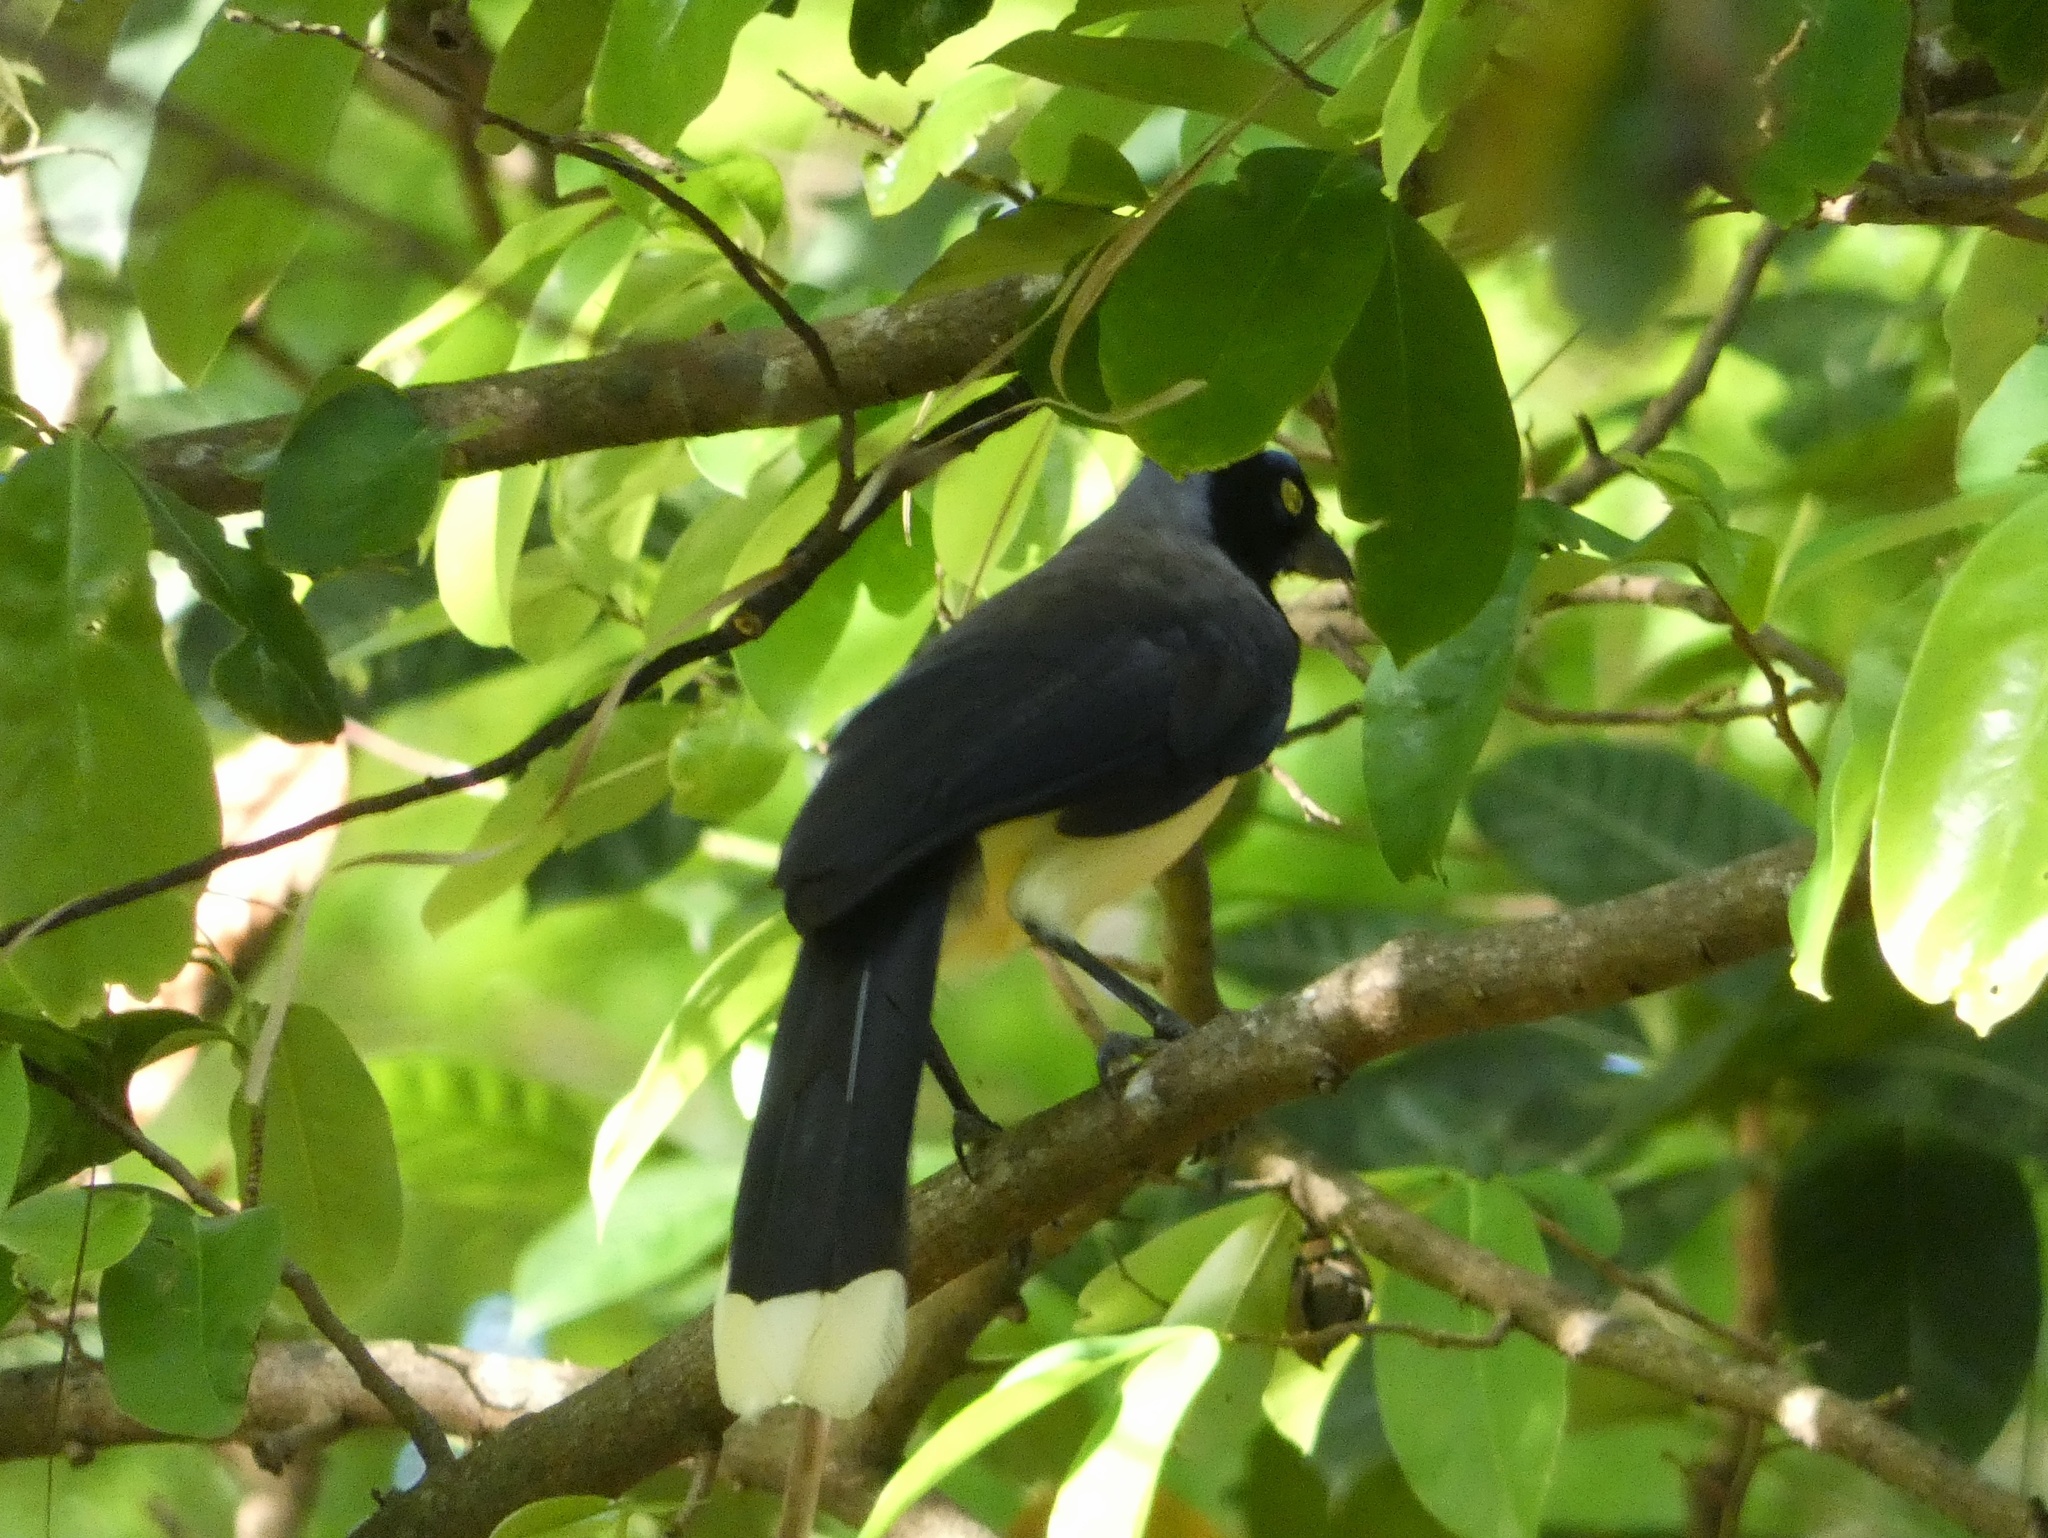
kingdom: Animalia
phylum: Chordata
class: Aves
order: Passeriformes
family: Corvidae
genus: Cyanocorax
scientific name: Cyanocorax affinis
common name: Black-chested jay
